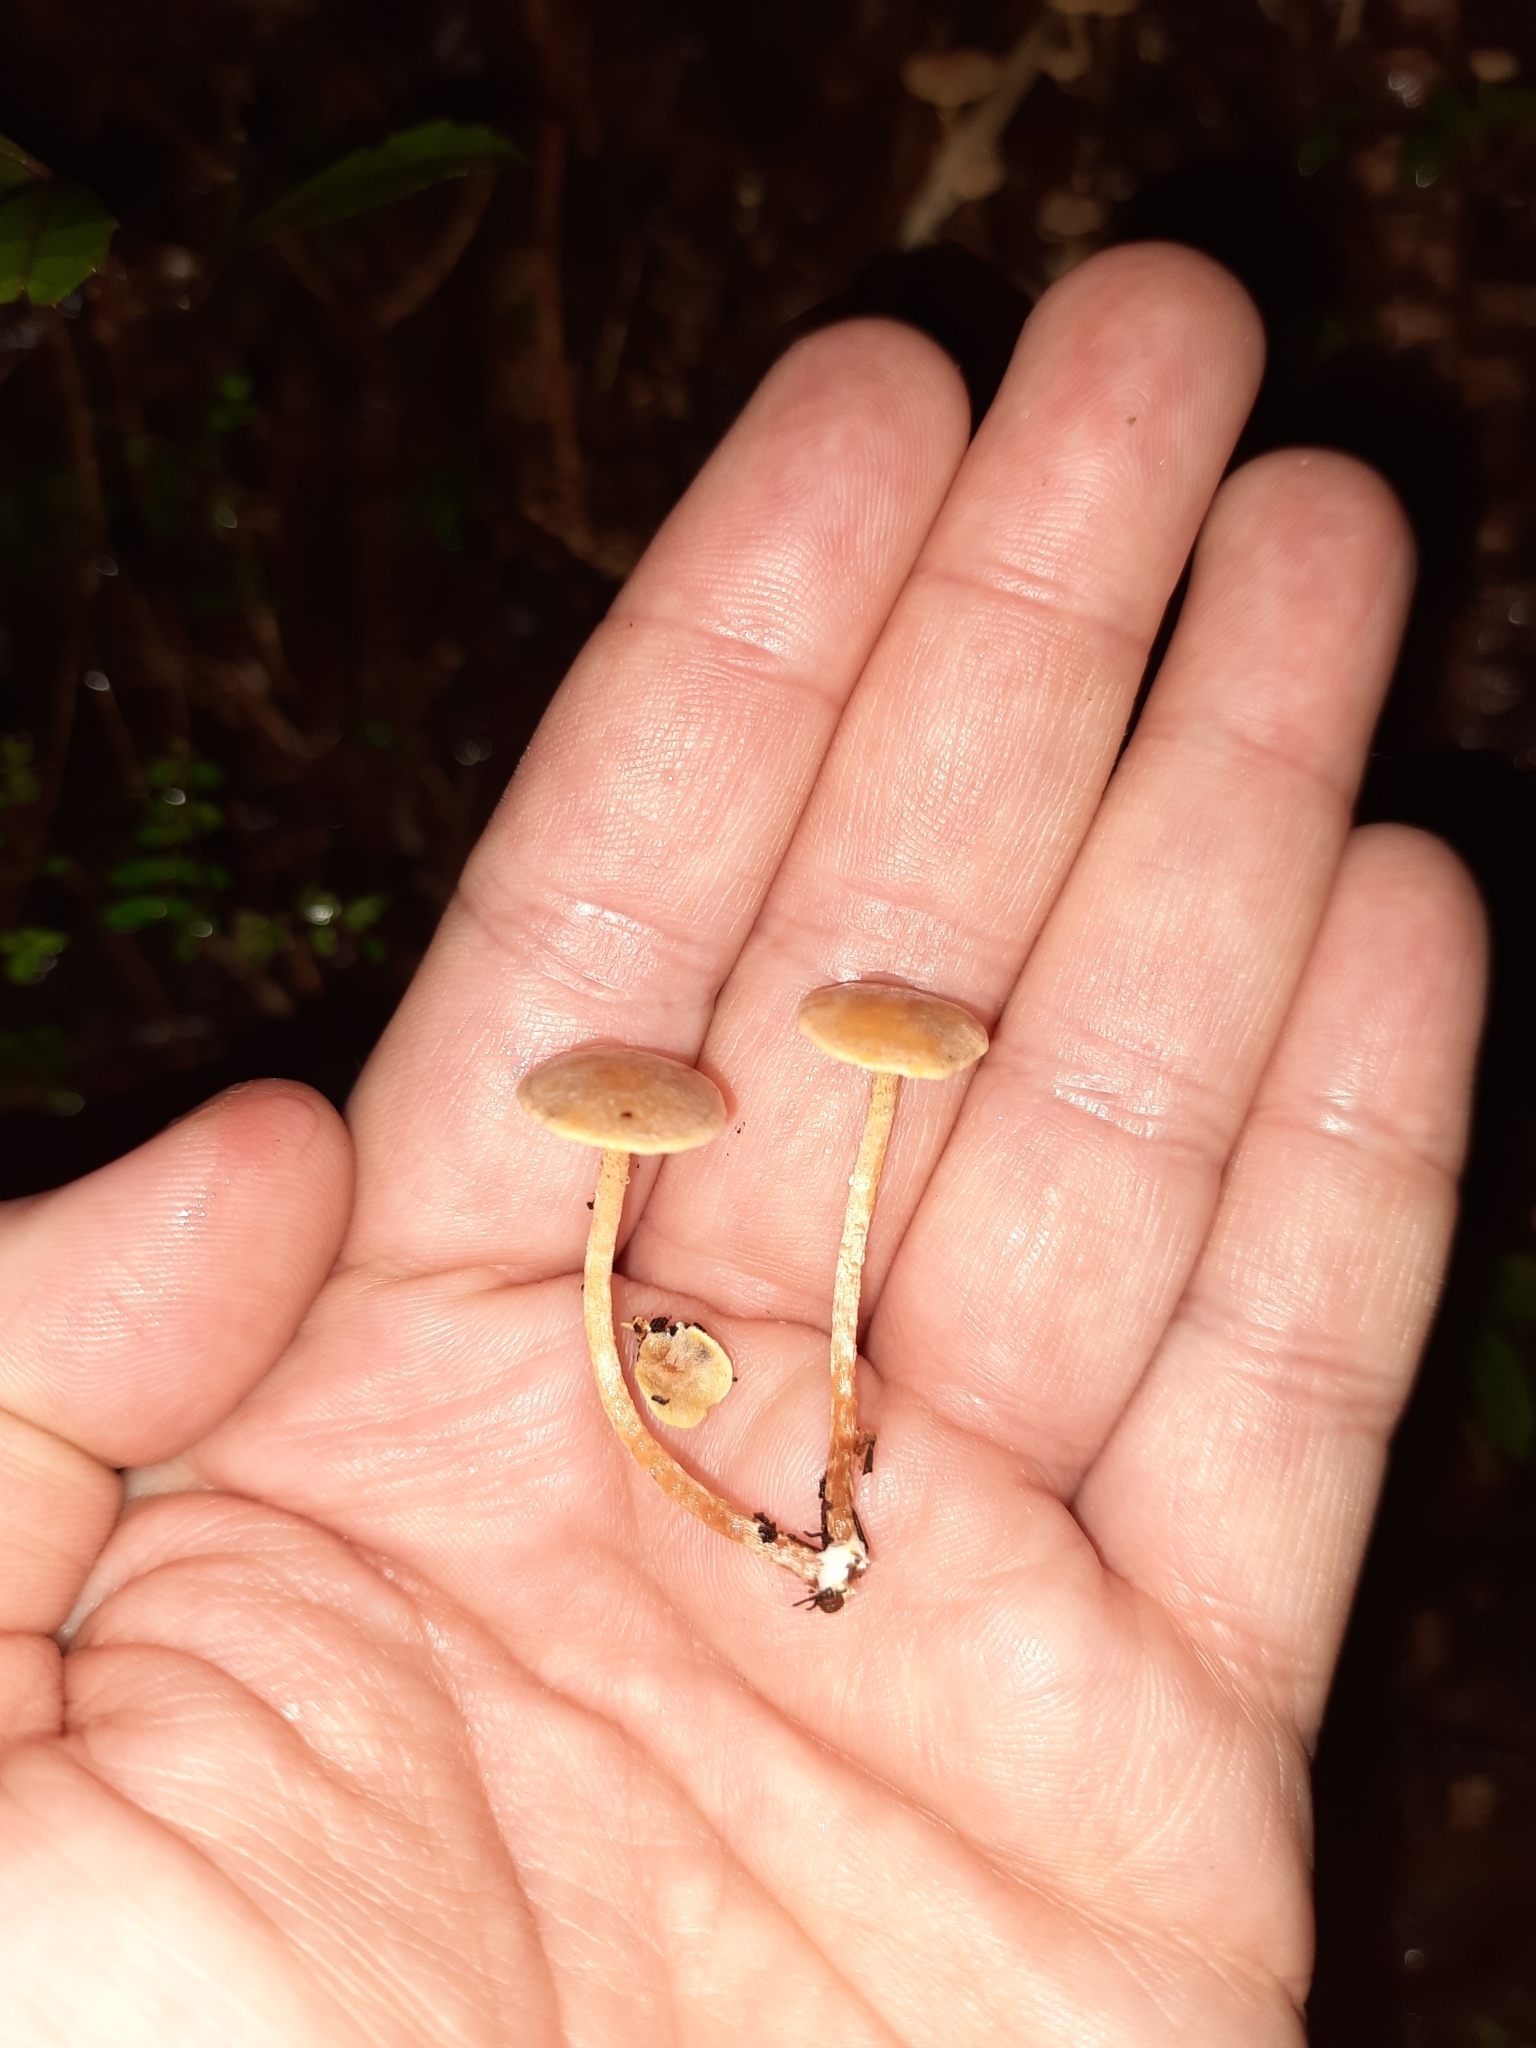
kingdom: Fungi
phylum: Basidiomycota
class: Agaricomycetes
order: Agaricales
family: Strophariaceae
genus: Hypholoma
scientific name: Hypholoma acutum
